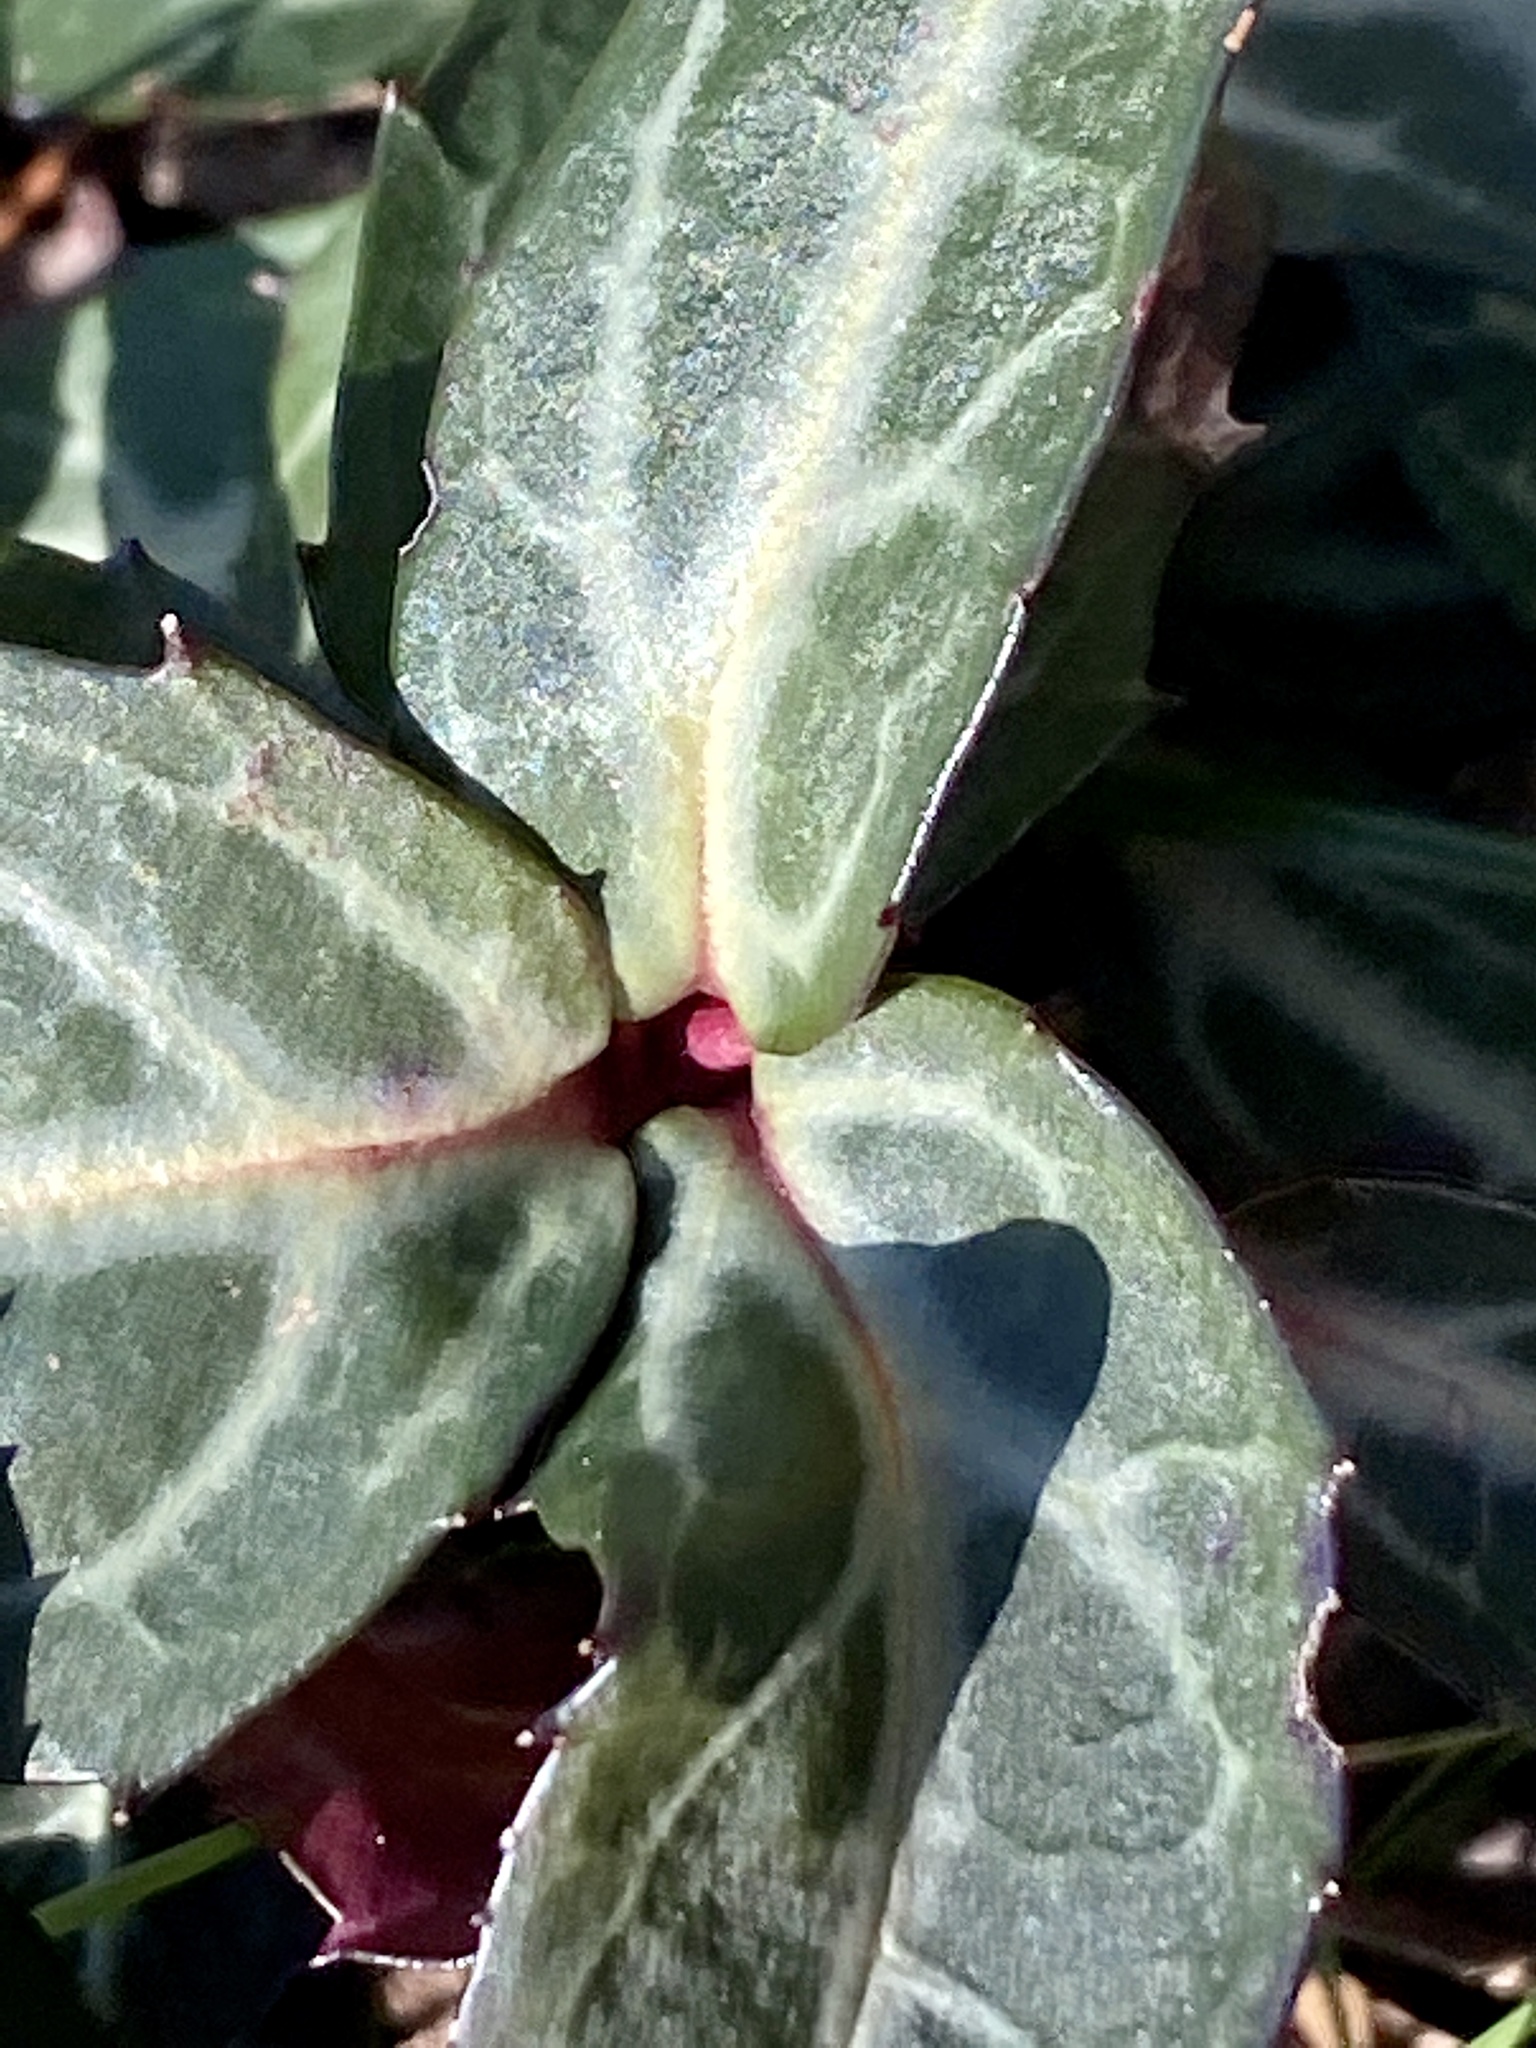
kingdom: Plantae
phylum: Tracheophyta
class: Magnoliopsida
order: Ericales
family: Ericaceae
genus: Chimaphila
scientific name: Chimaphila maculata
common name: Spotted pipsissewa
